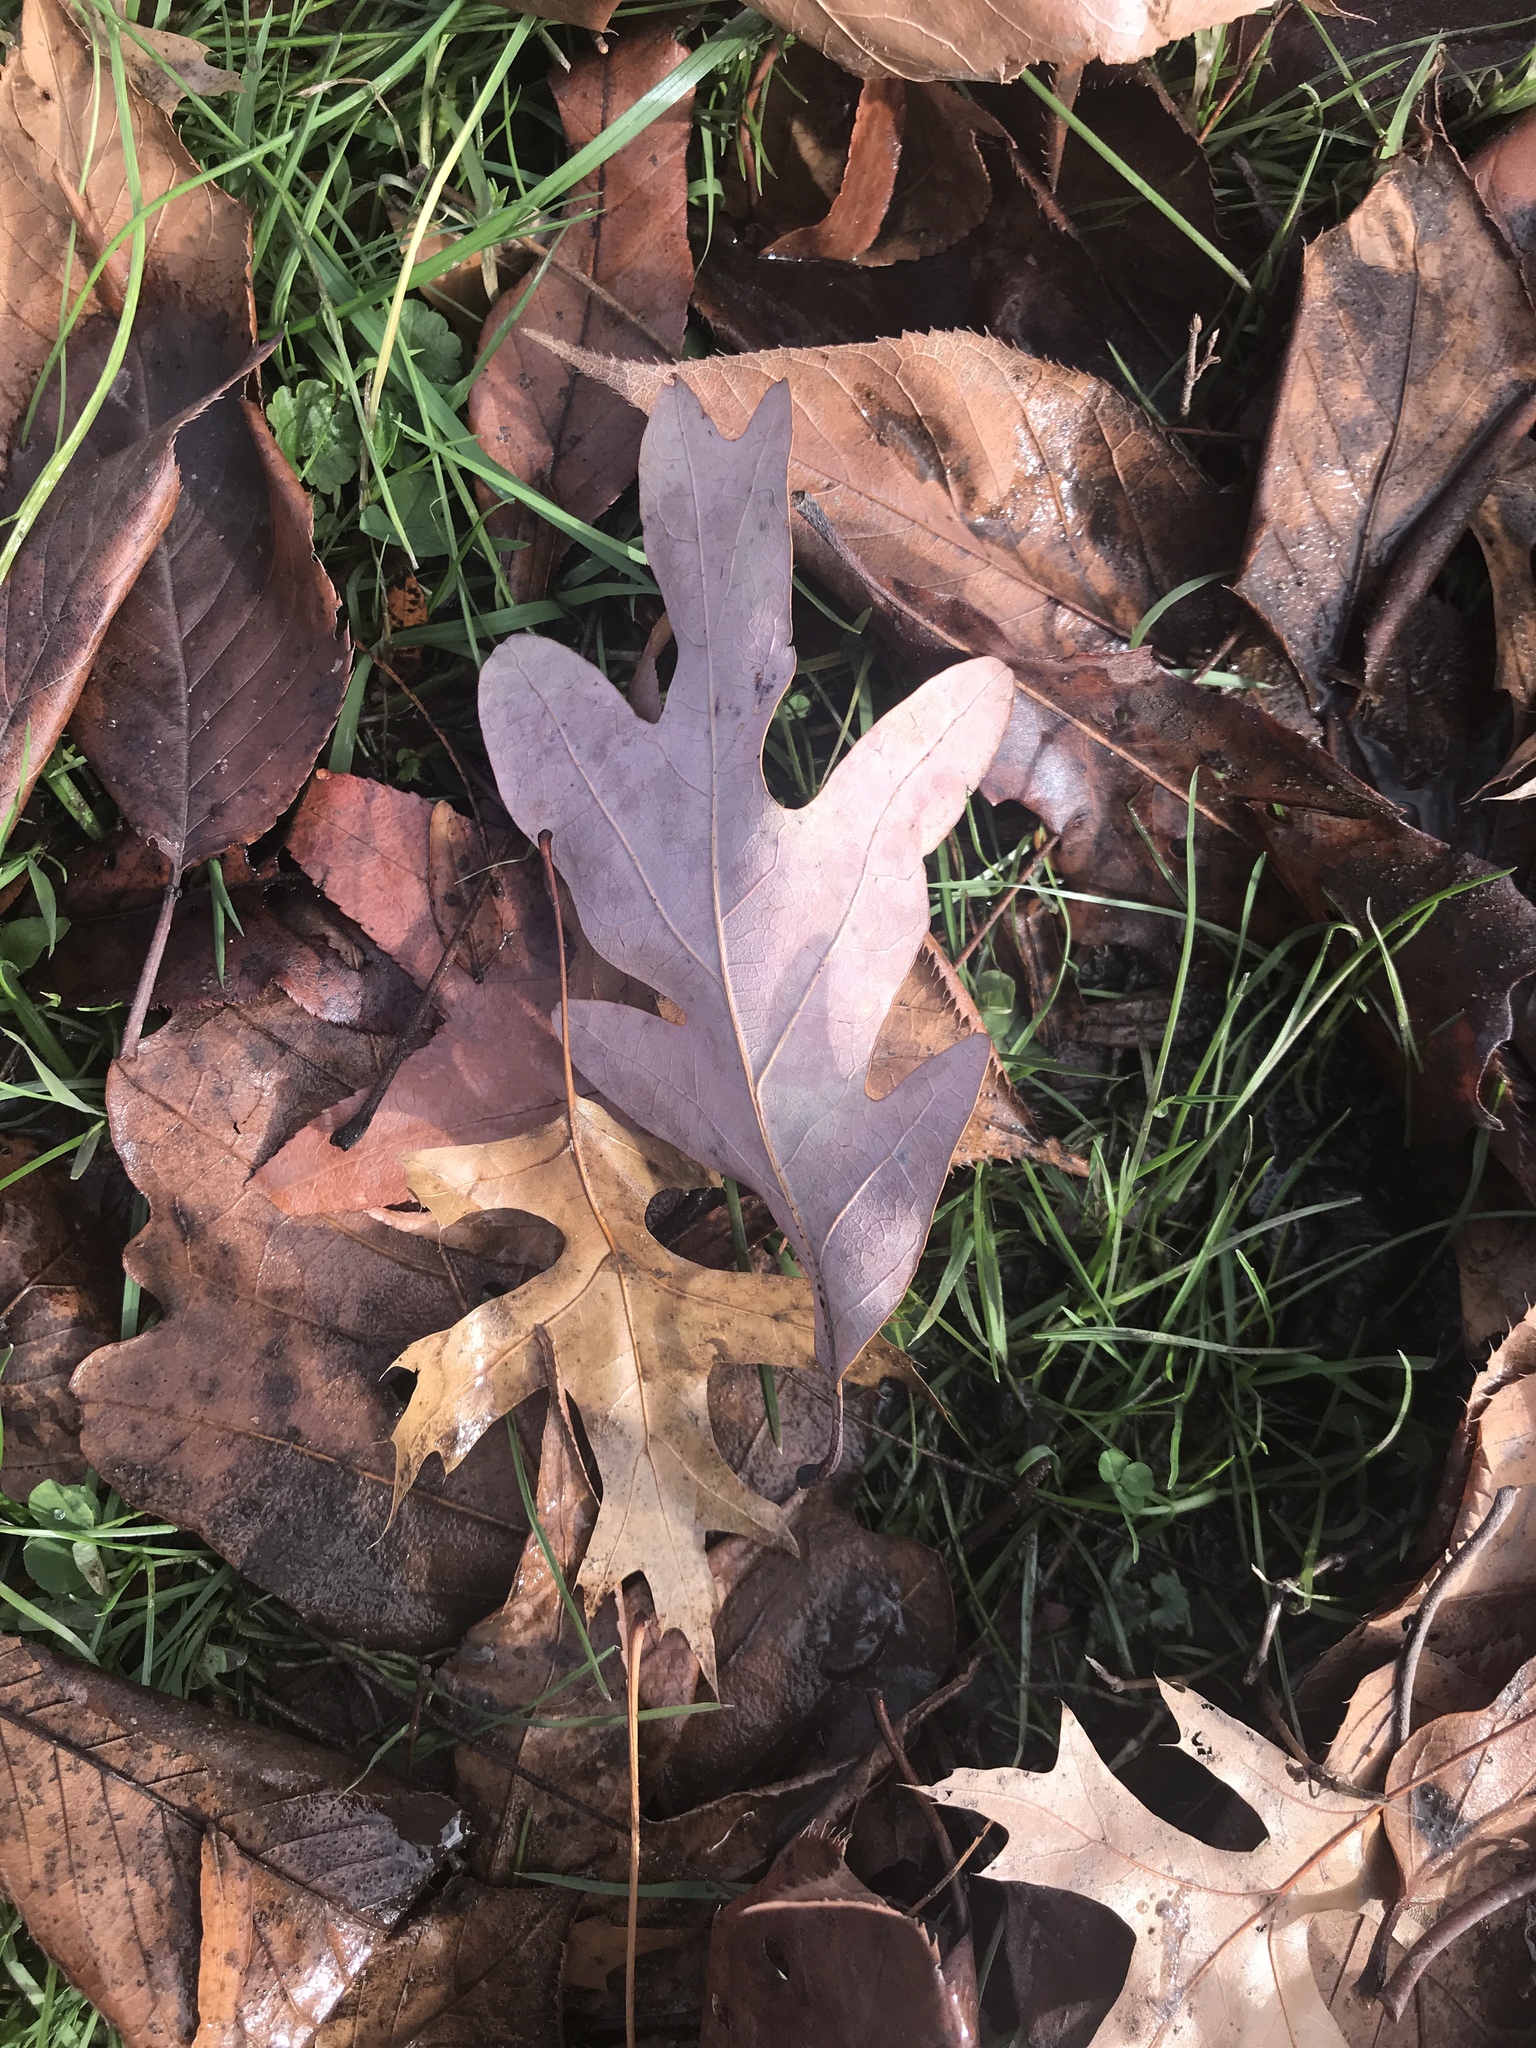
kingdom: Plantae
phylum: Tracheophyta
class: Magnoliopsida
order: Fagales
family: Fagaceae
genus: Quercus
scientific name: Quercus alba
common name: White oak
